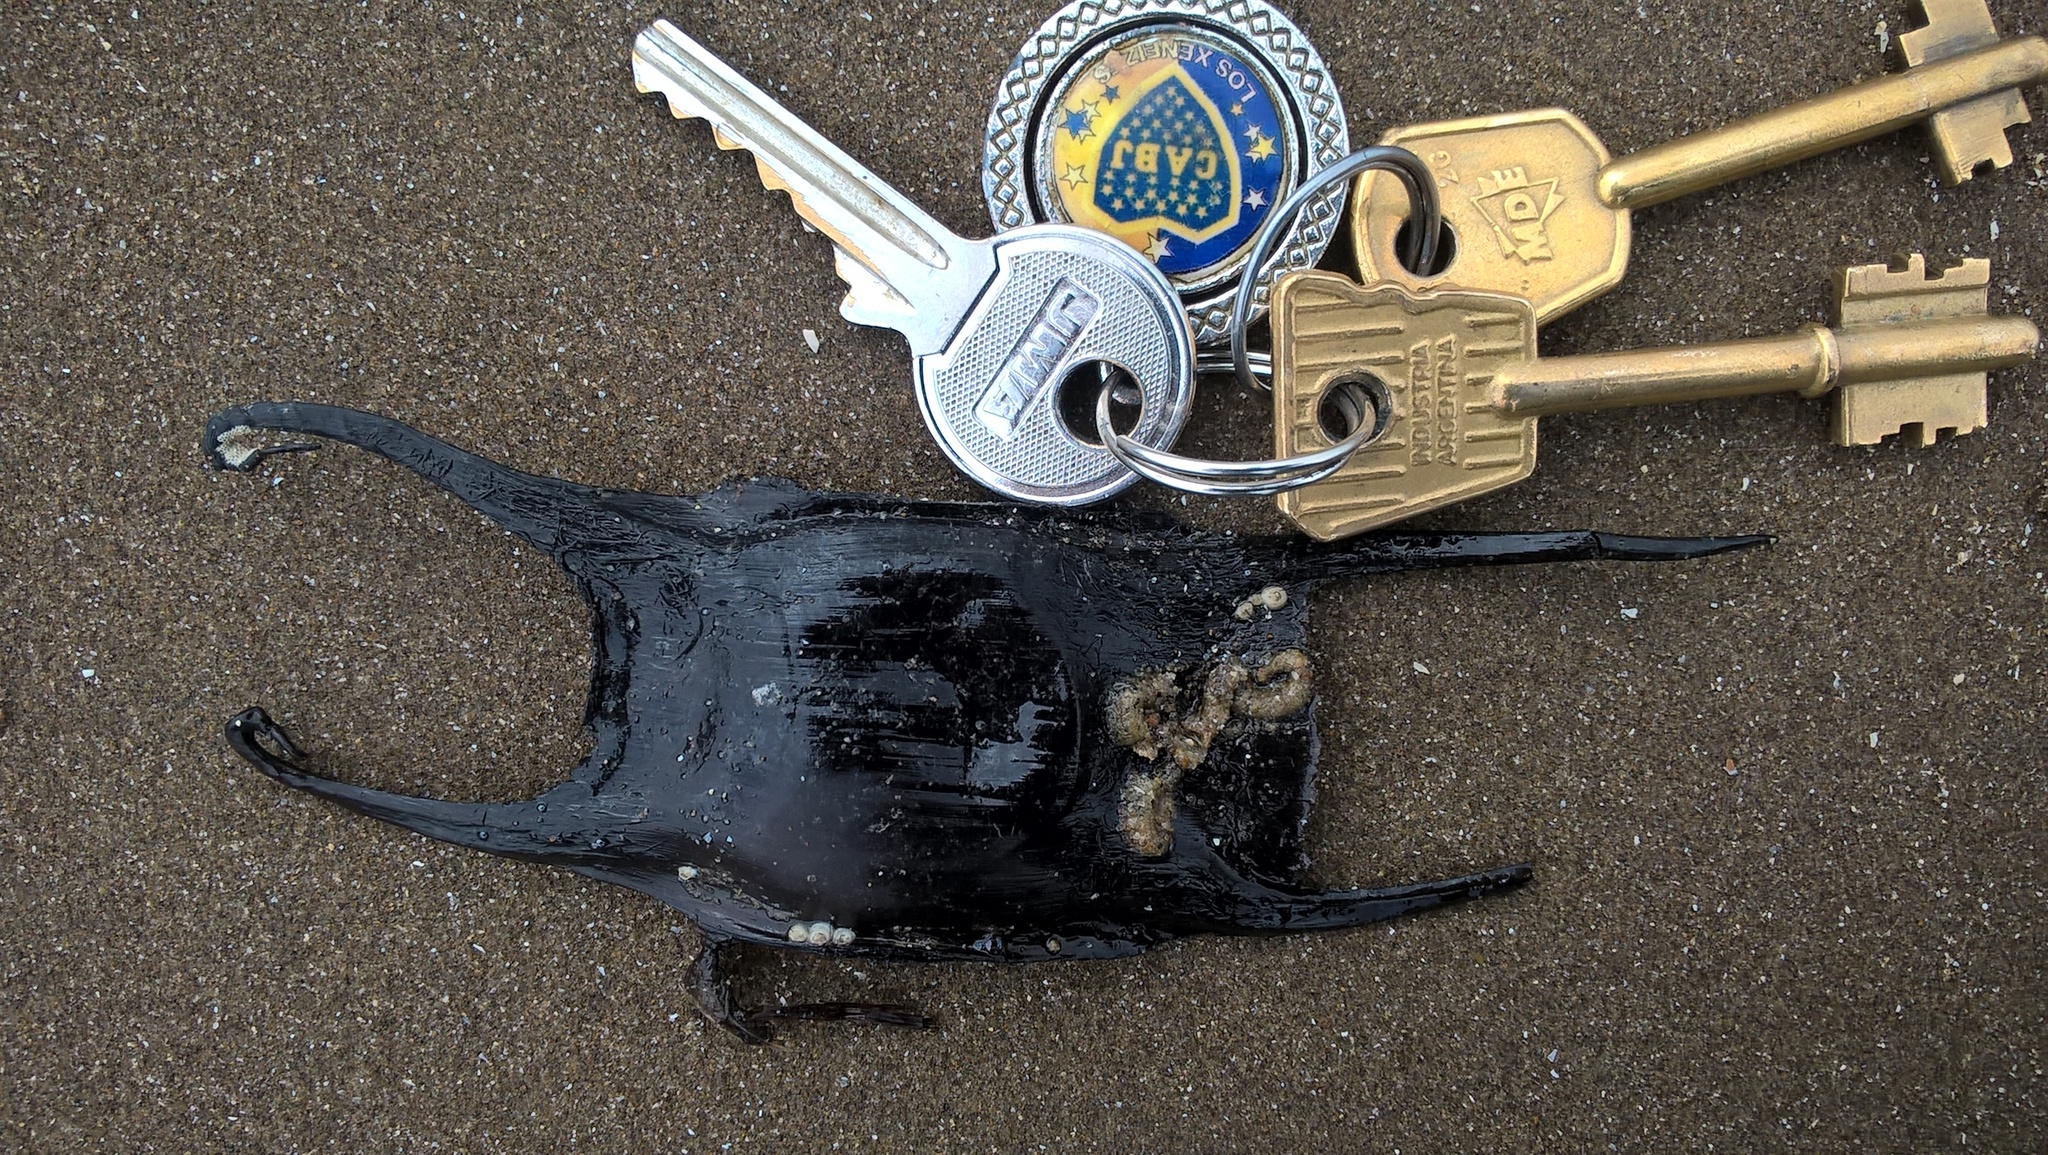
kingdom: Animalia
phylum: Chordata
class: Elasmobranchii
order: Rajiformes
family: Arhynchobatidae
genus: Rioraja
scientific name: Rioraja agassizii
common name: Rio skate
